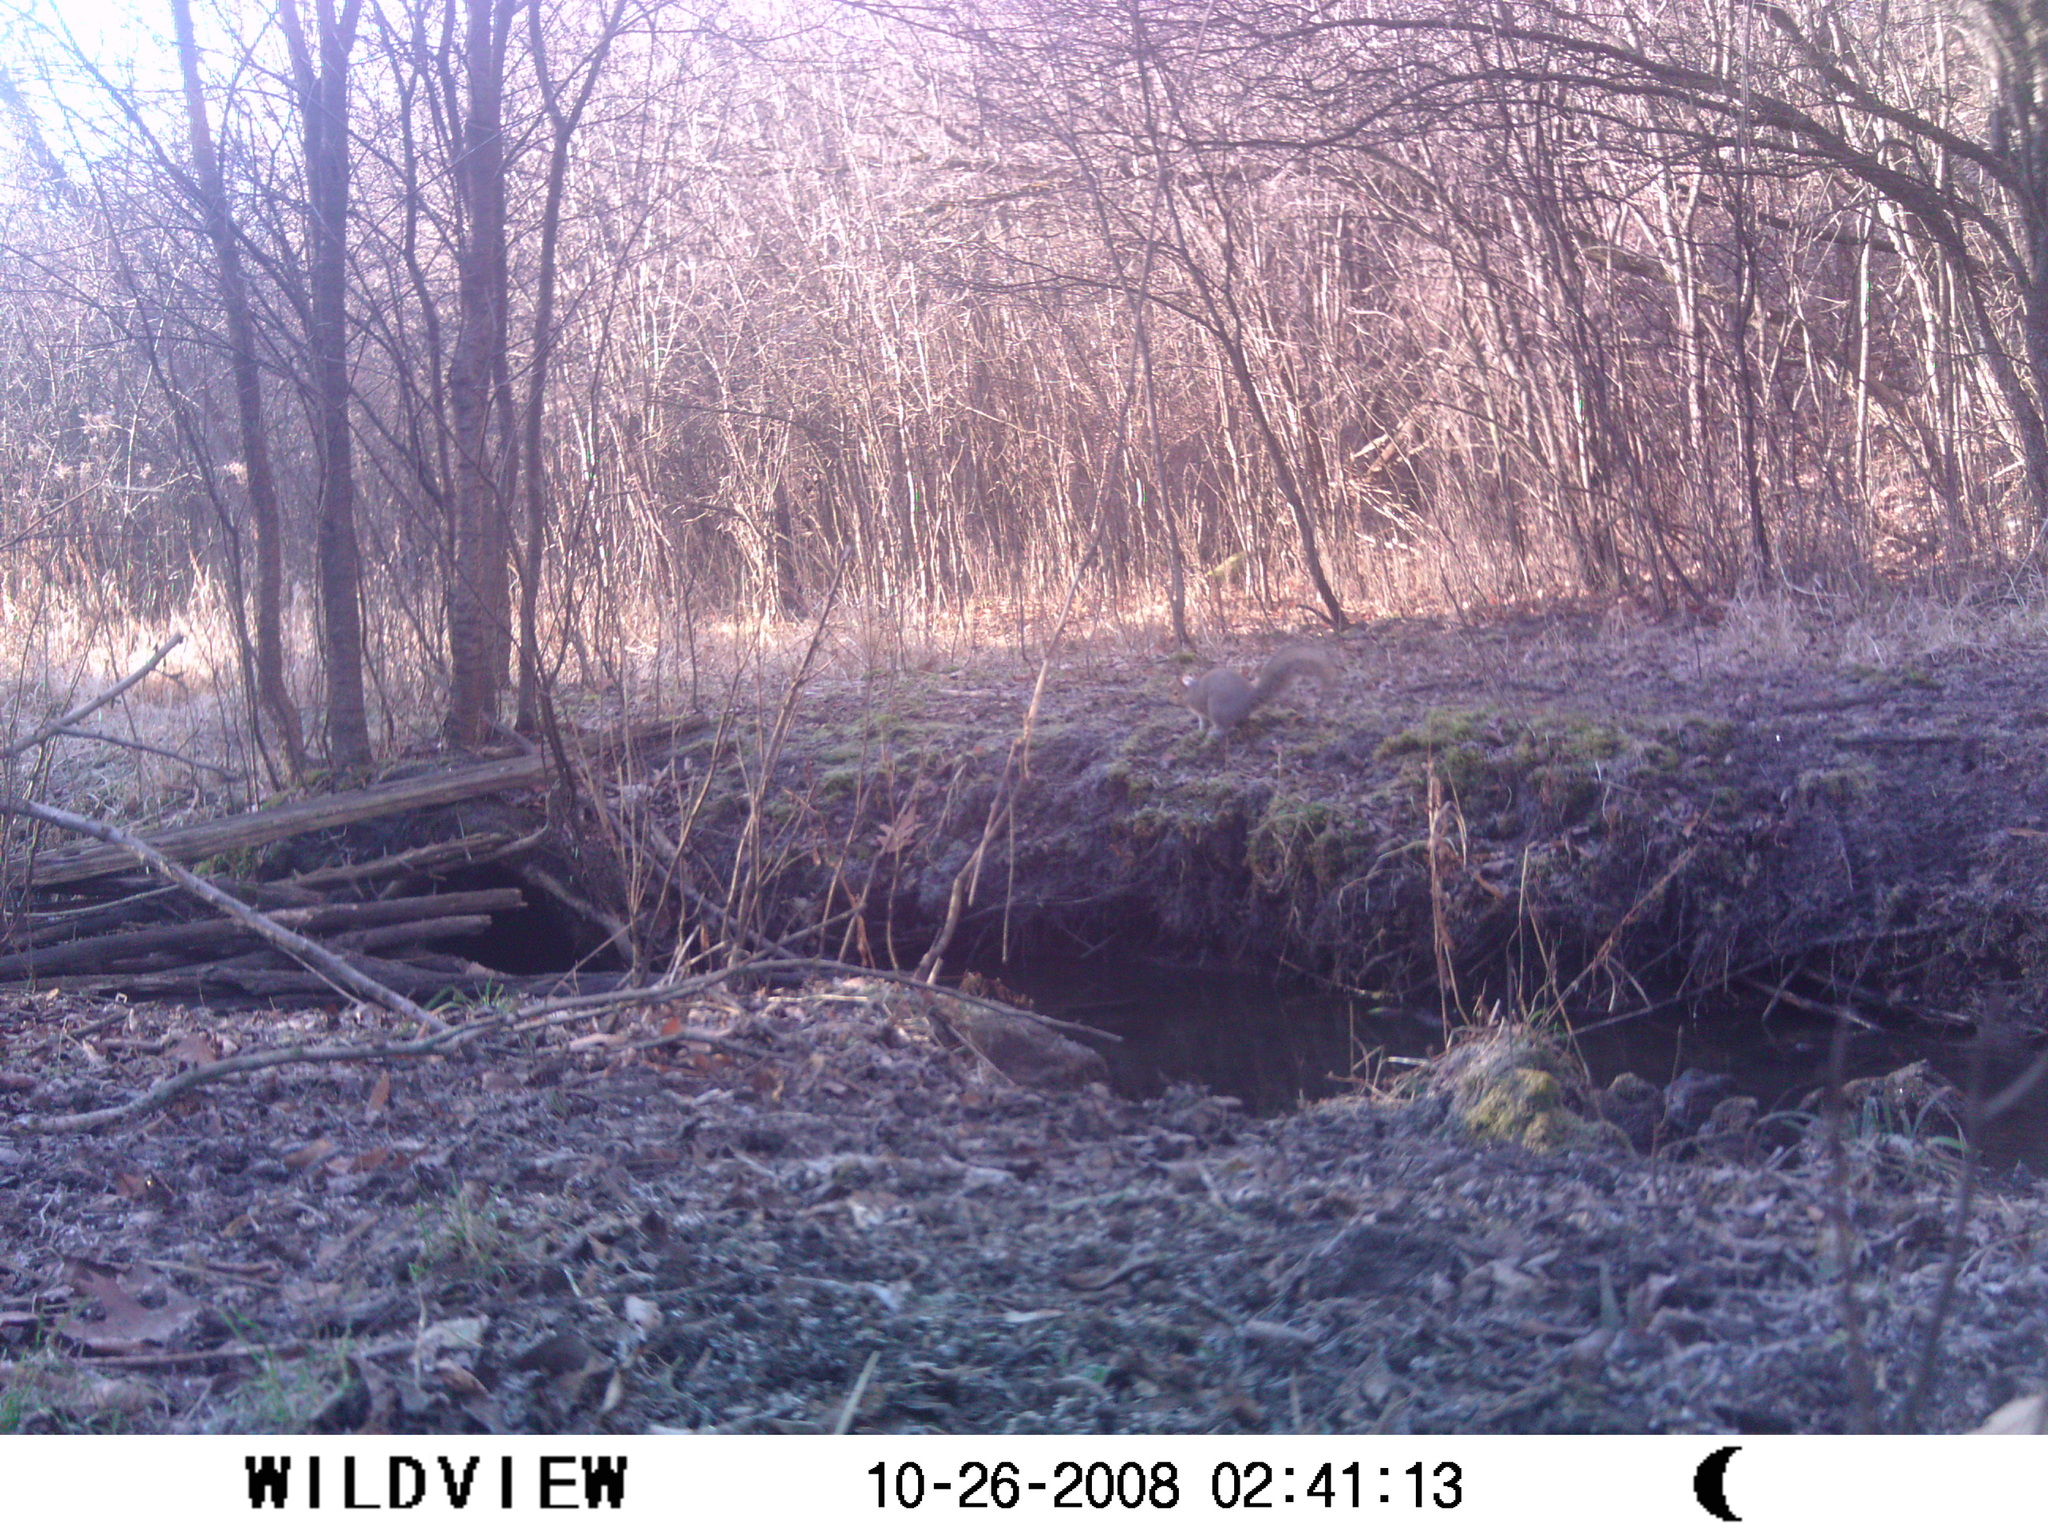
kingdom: Animalia
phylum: Chordata
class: Mammalia
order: Rodentia
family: Sciuridae
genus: Sciurus
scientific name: Sciurus carolinensis
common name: Eastern gray squirrel
